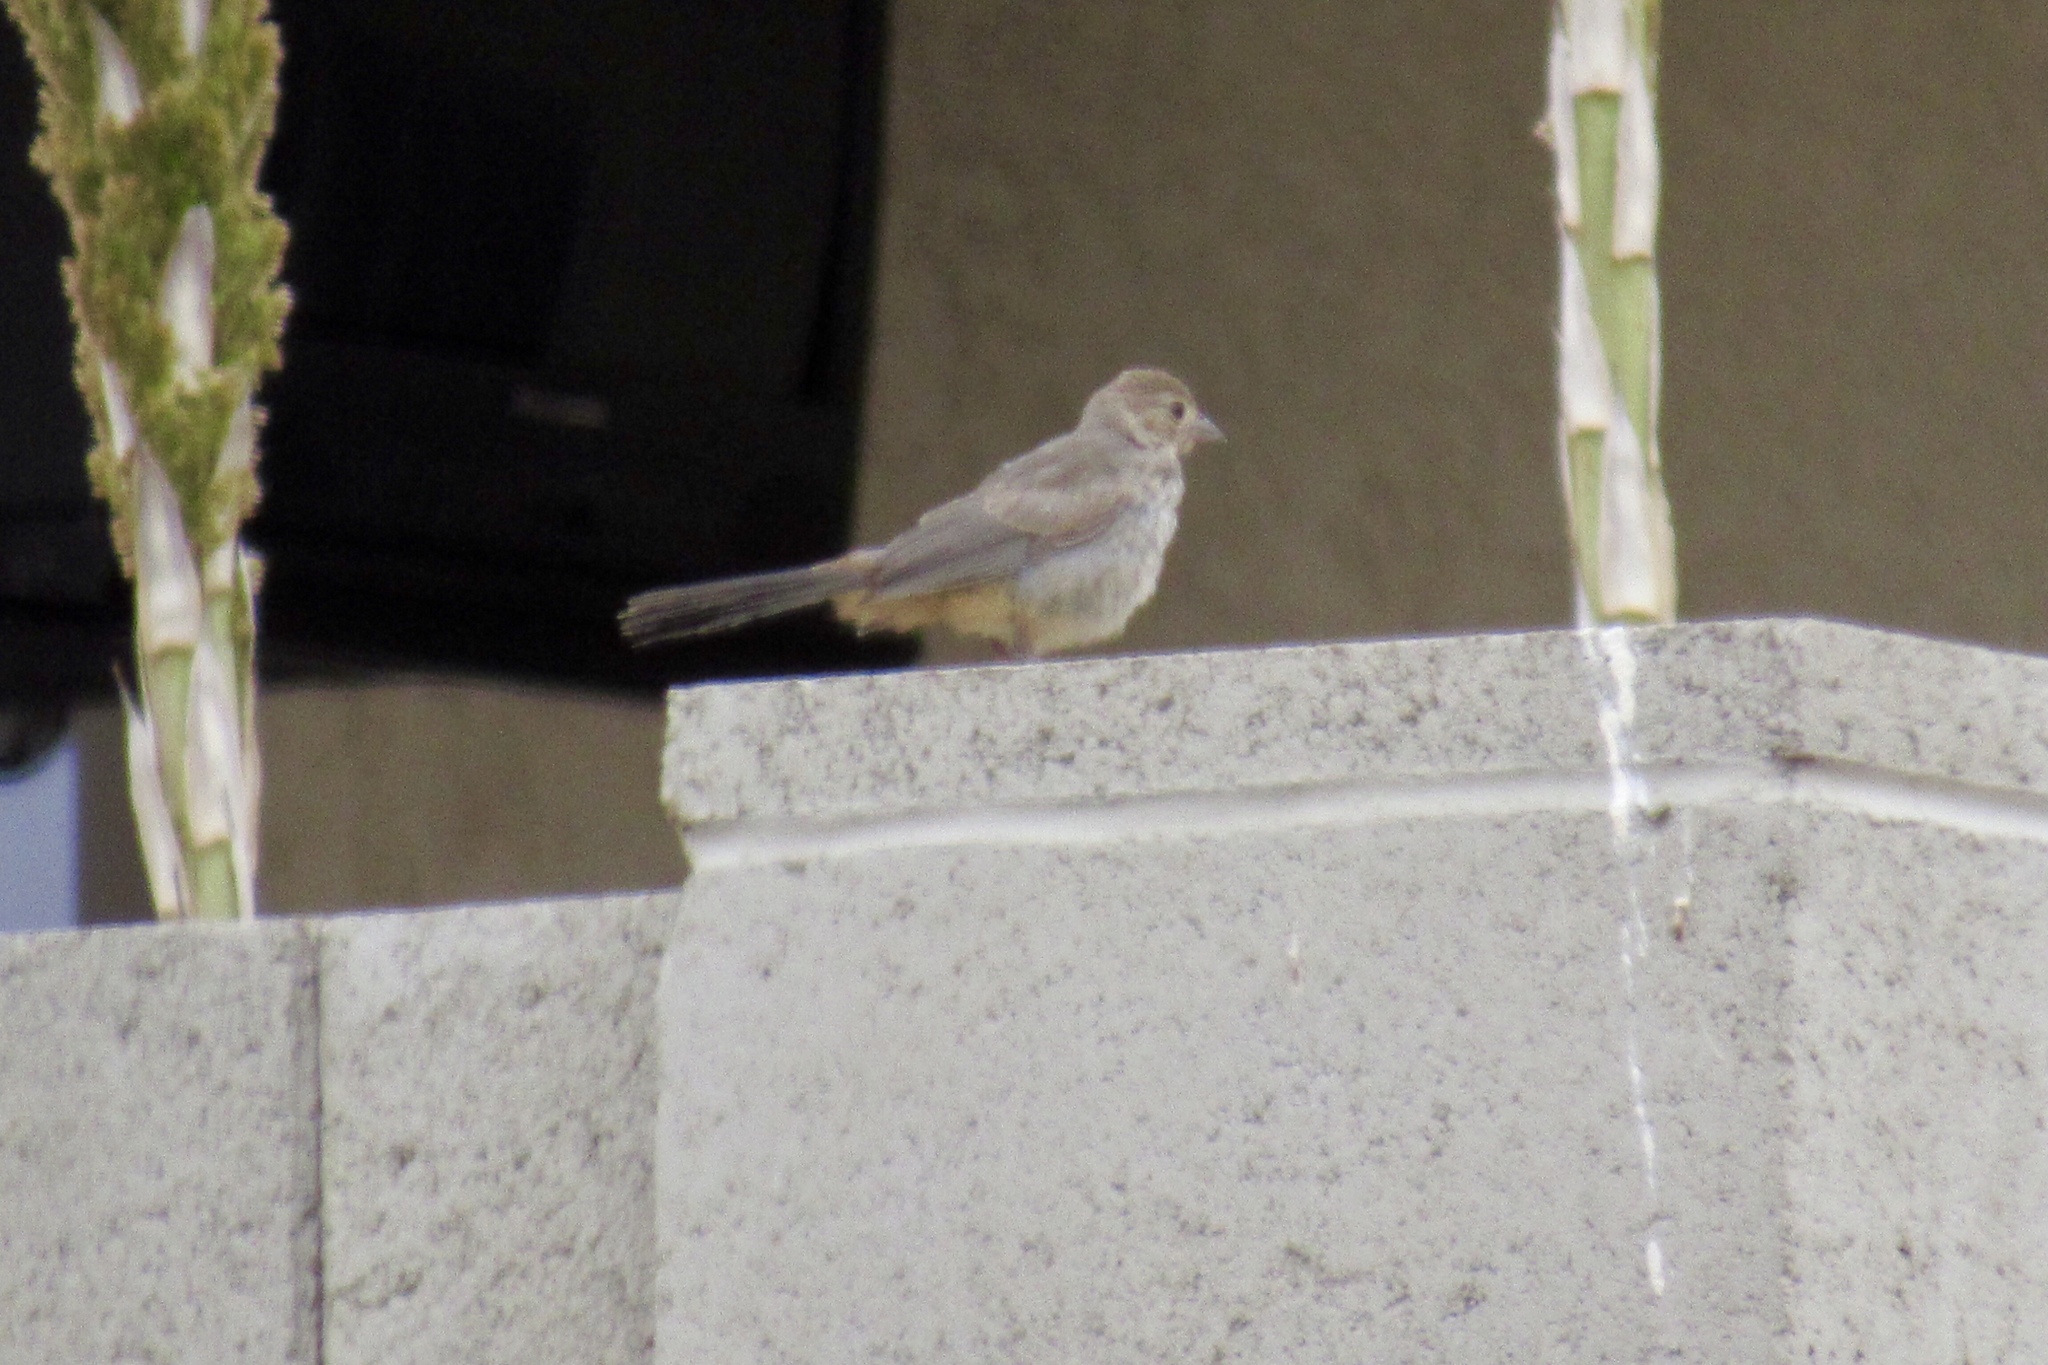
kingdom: Animalia
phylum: Chordata
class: Aves
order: Passeriformes
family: Passerellidae
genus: Melozone
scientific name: Melozone fusca
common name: Canyon towhee
